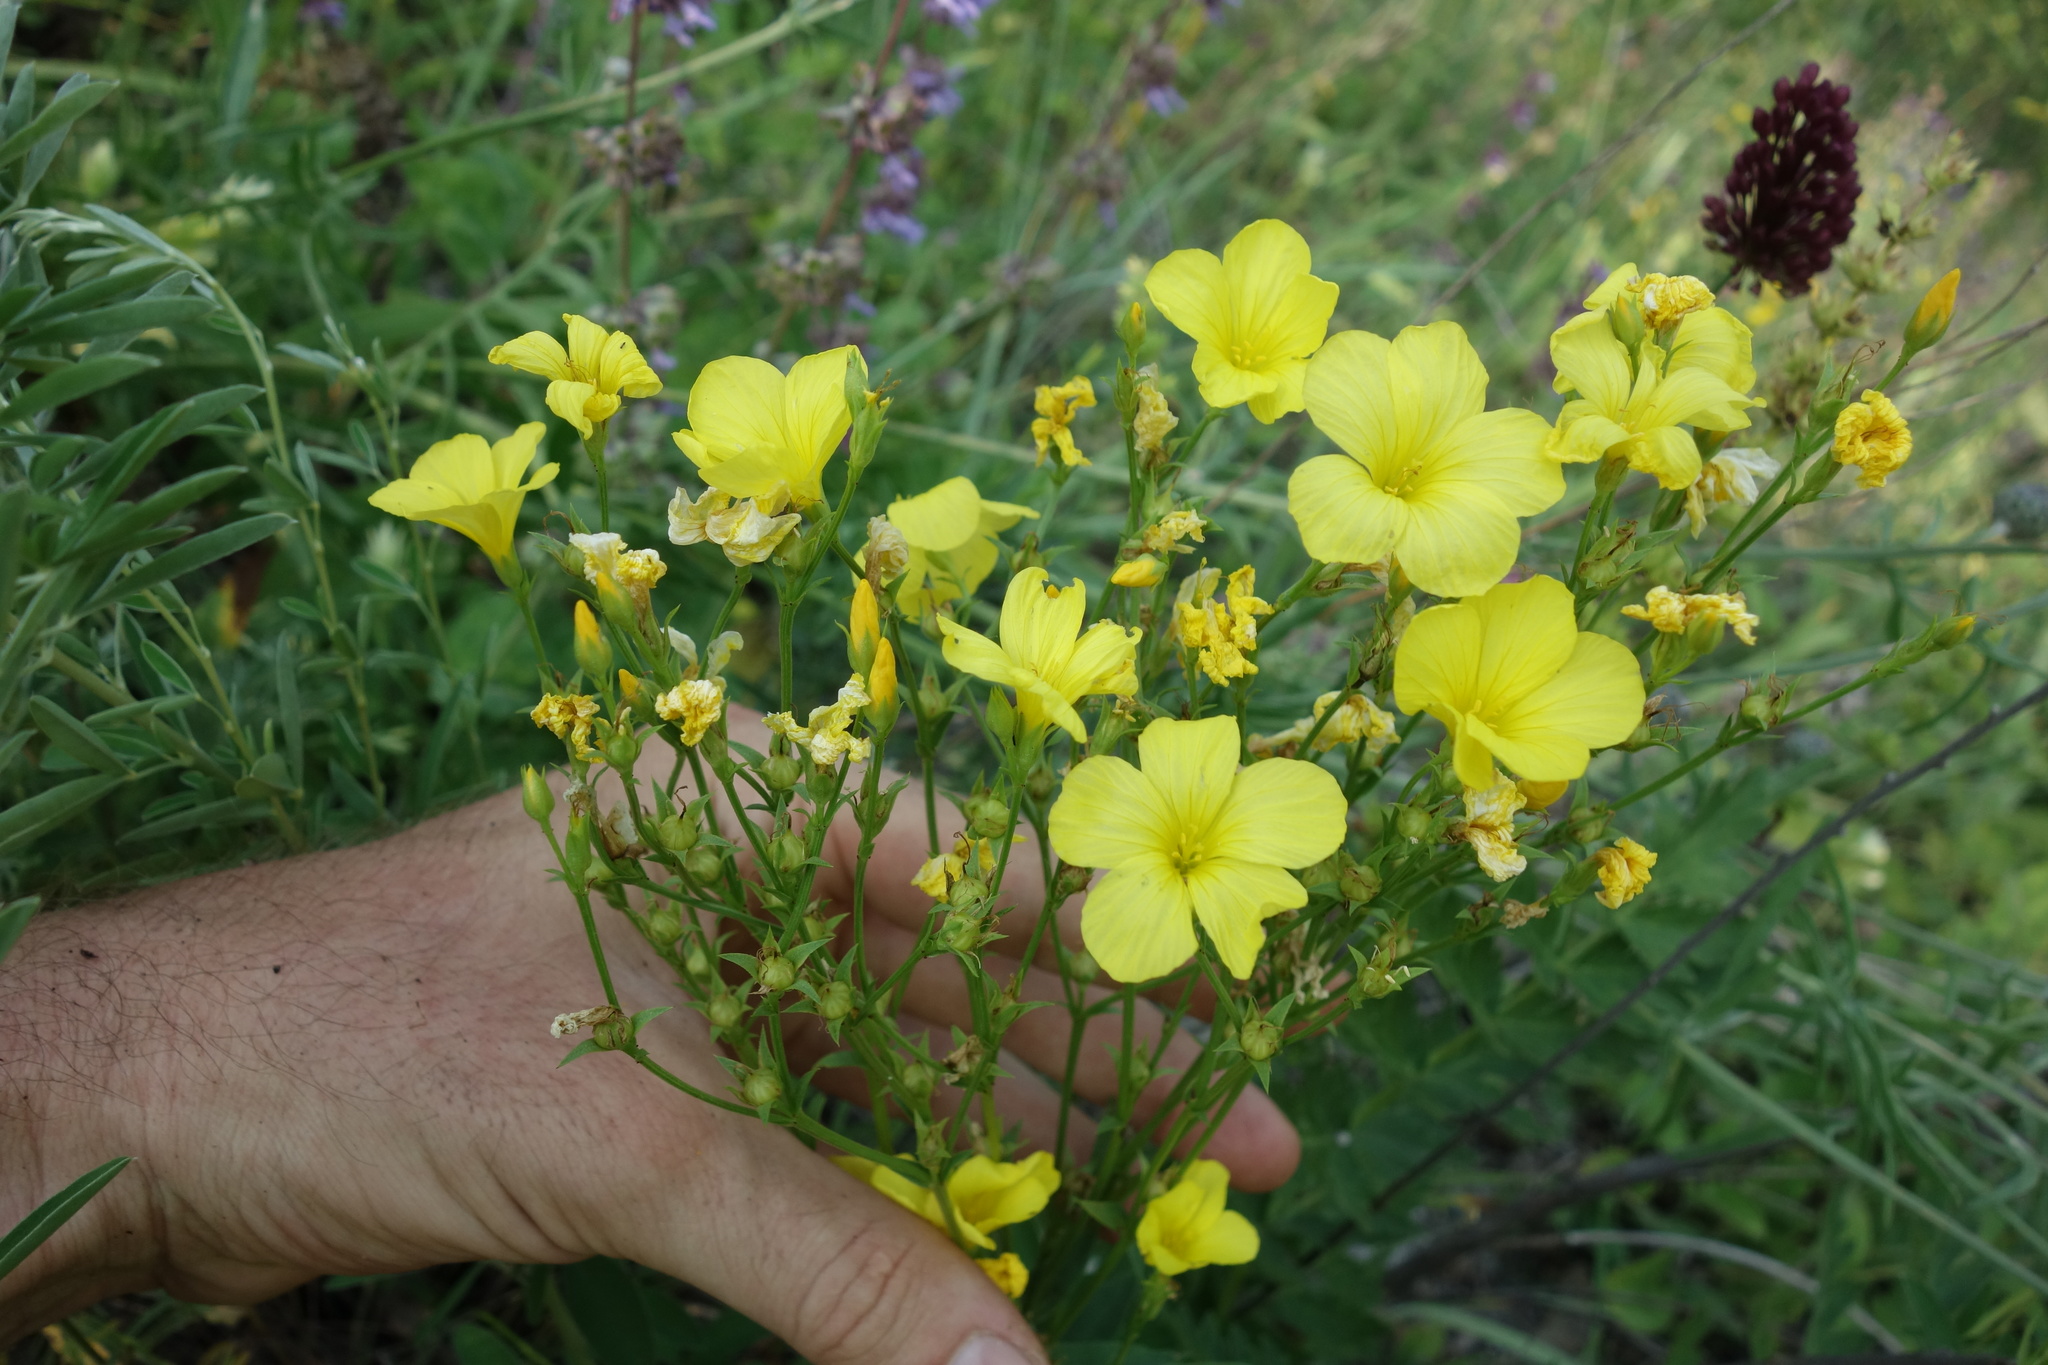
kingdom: Plantae
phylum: Tracheophyta
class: Magnoliopsida
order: Malpighiales
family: Linaceae
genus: Linum
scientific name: Linum flavum
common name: Yellow flax
